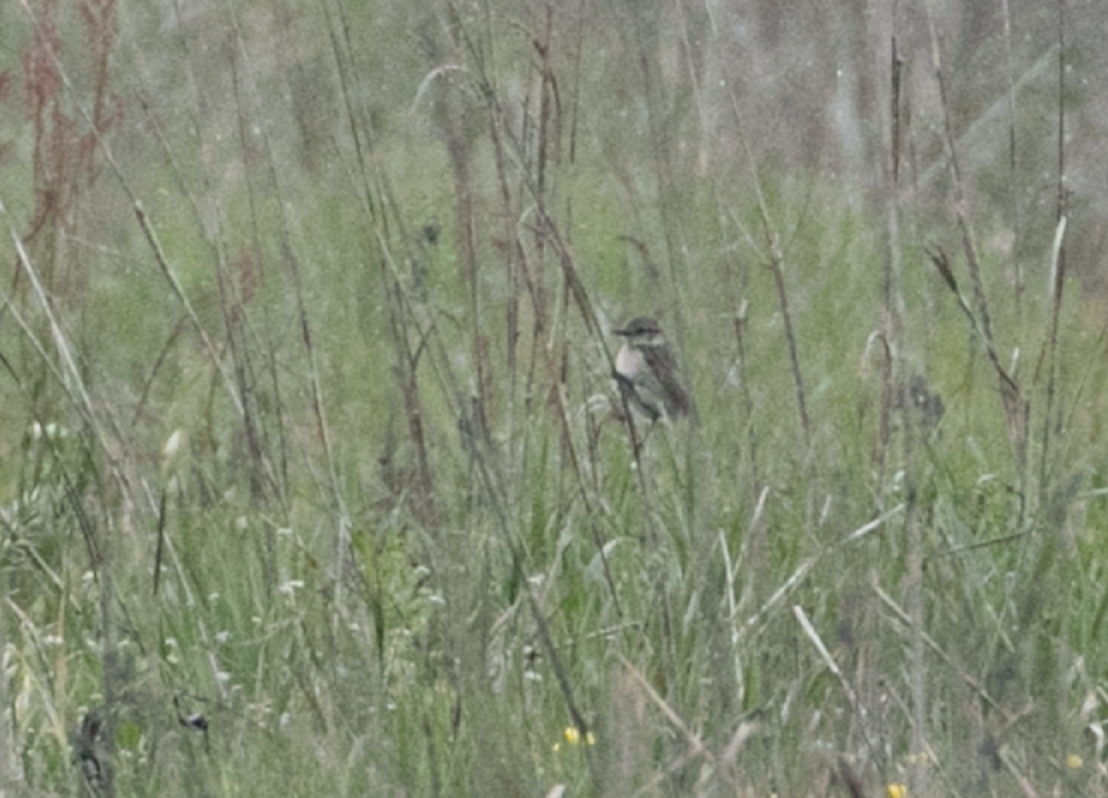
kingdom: Animalia
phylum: Chordata
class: Aves
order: Passeriformes
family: Muscicapidae
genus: Saxicola
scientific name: Saxicola rubicola
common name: European stonechat
